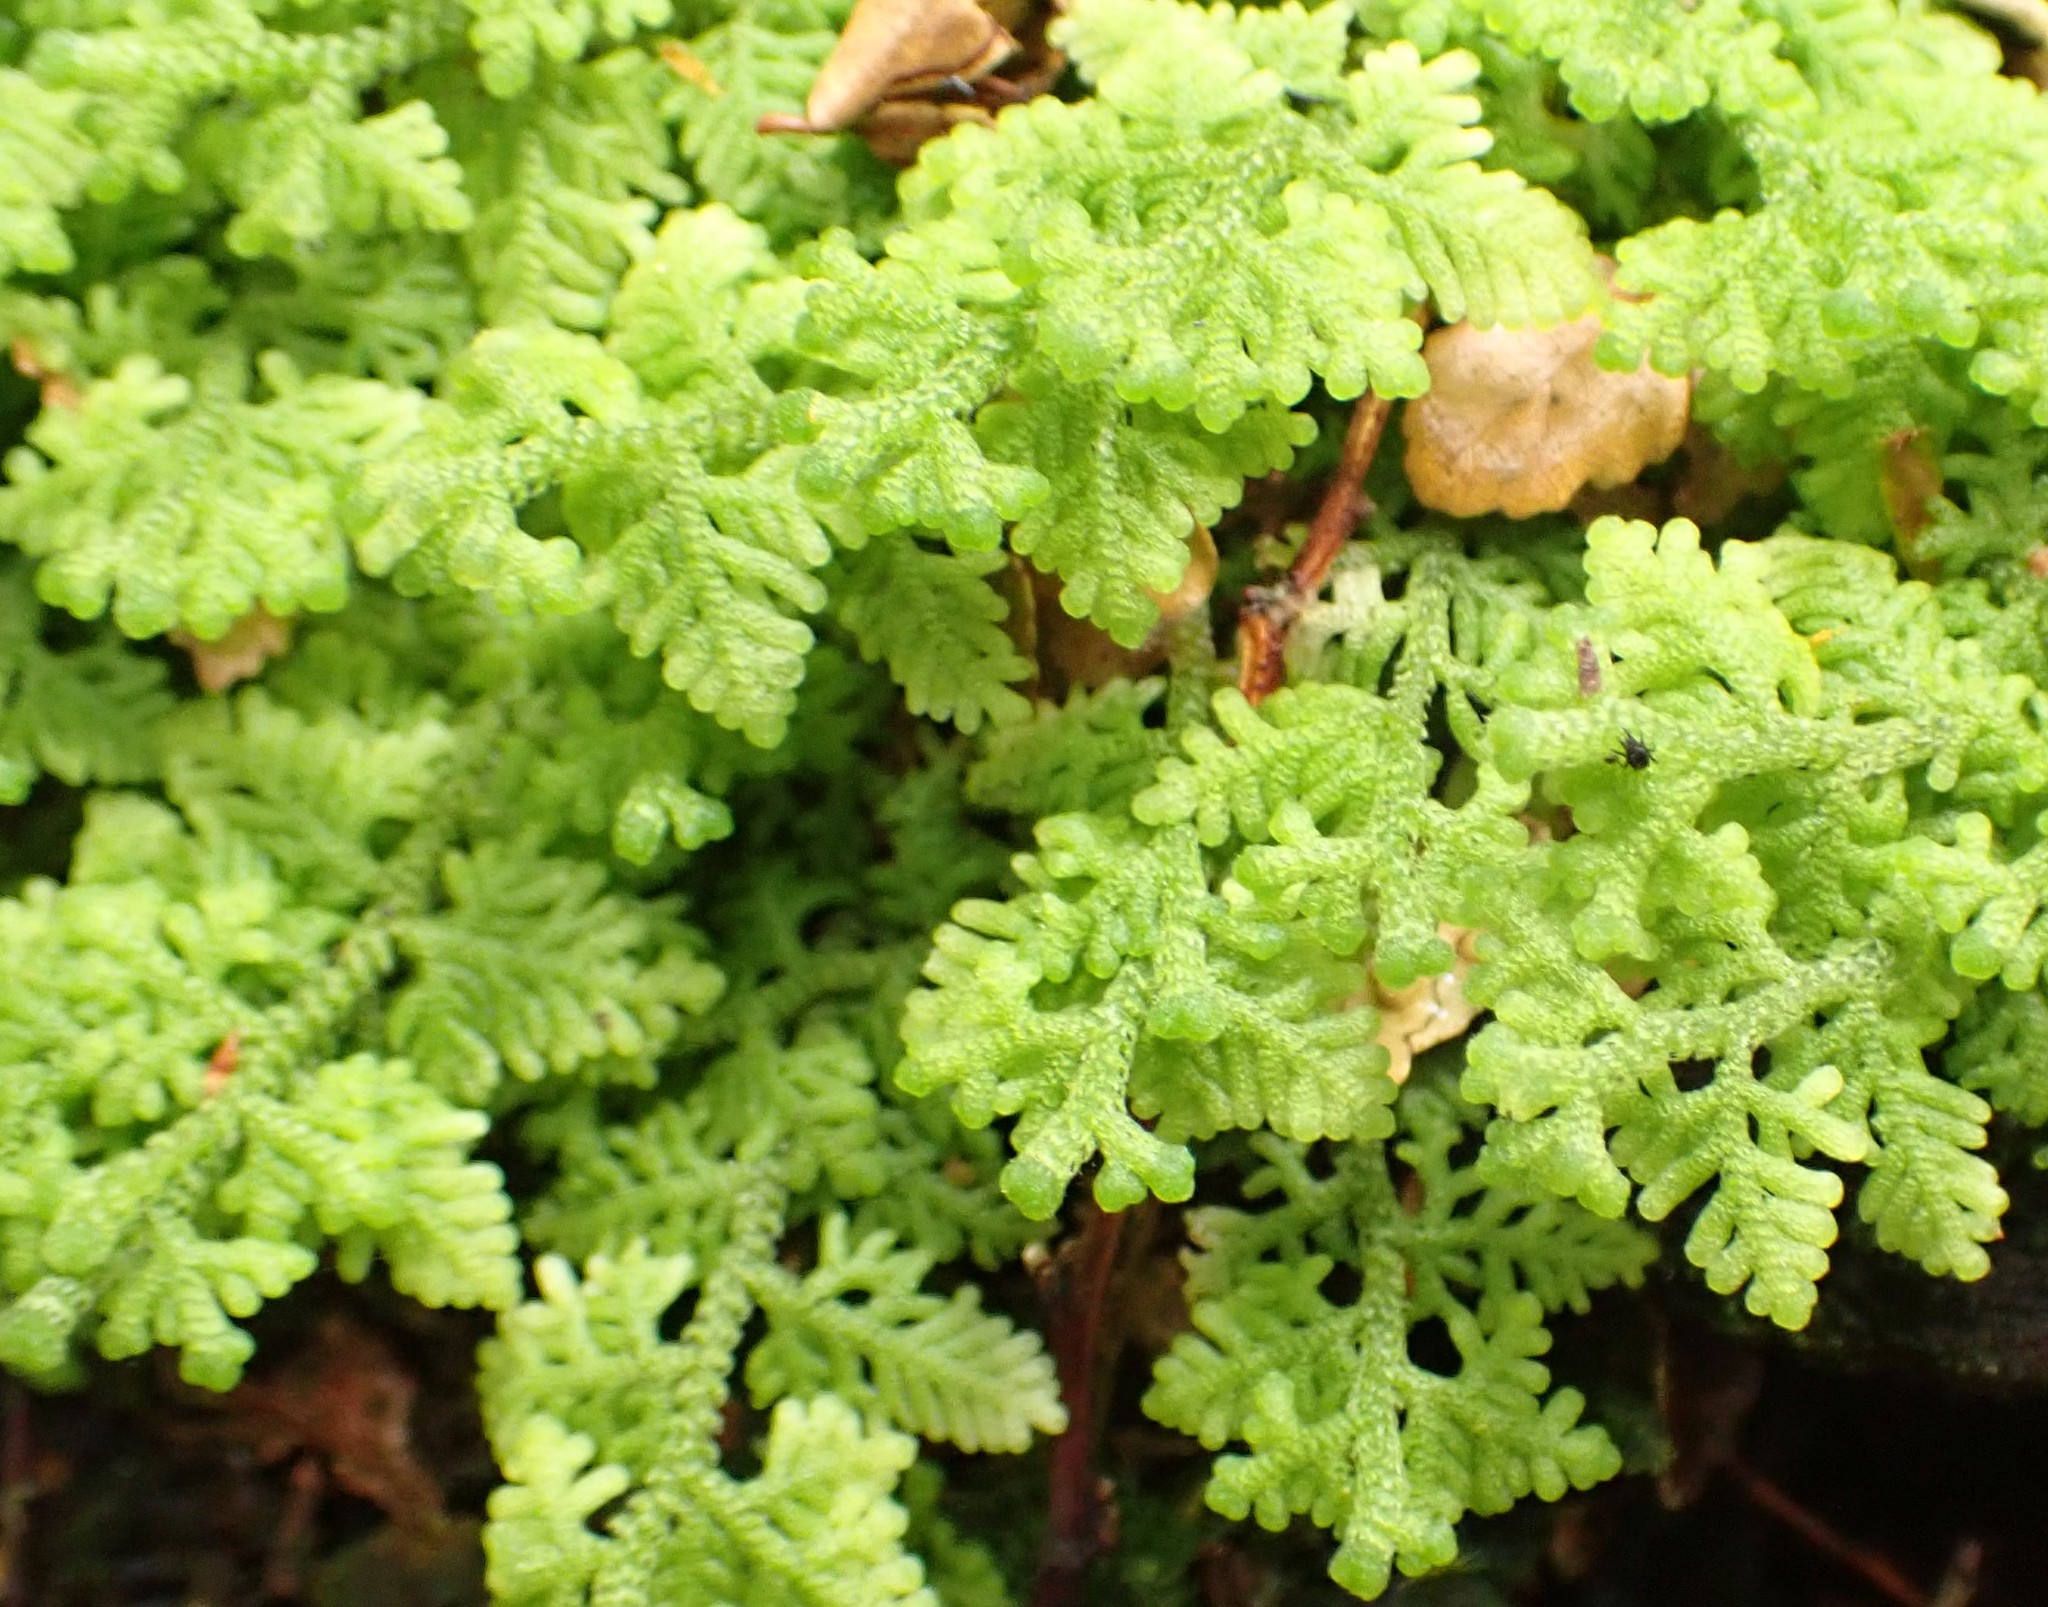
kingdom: Plantae
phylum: Marchantiophyta
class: Jungermanniopsida
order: Jungermanniales
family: Trichocoleaceae
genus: Trichocolea
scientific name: Trichocolea mollissima
